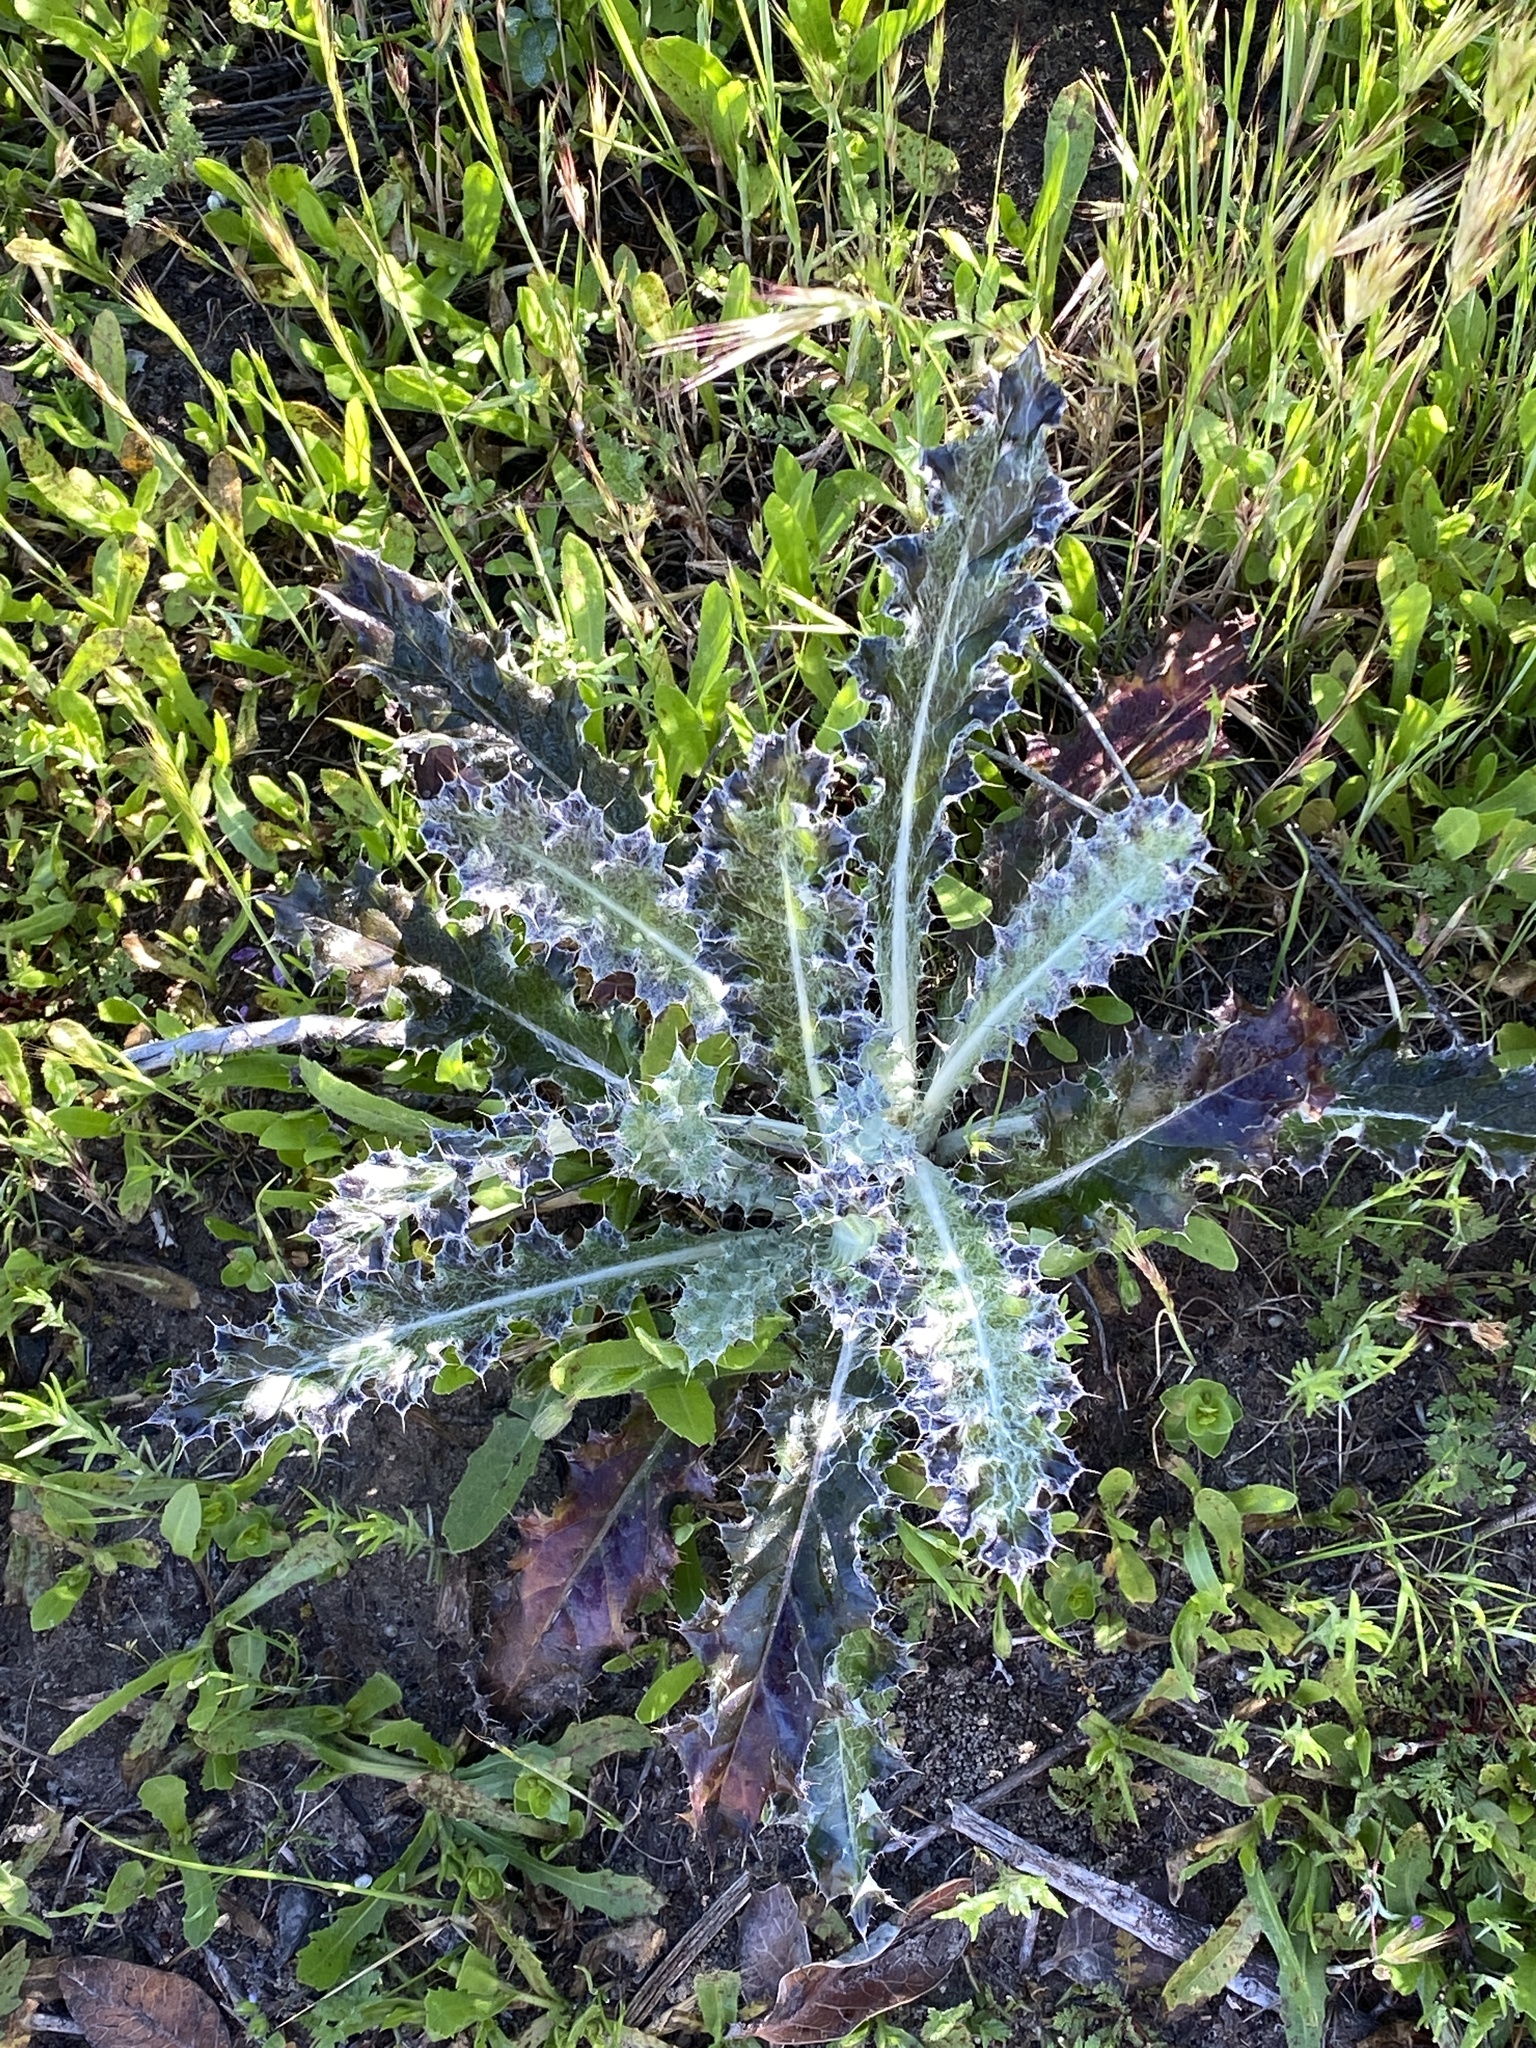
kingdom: Plantae
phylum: Tracheophyta
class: Magnoliopsida
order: Asterales
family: Asteraceae
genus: Cirsium
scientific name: Cirsium occidentale
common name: Western thistle
